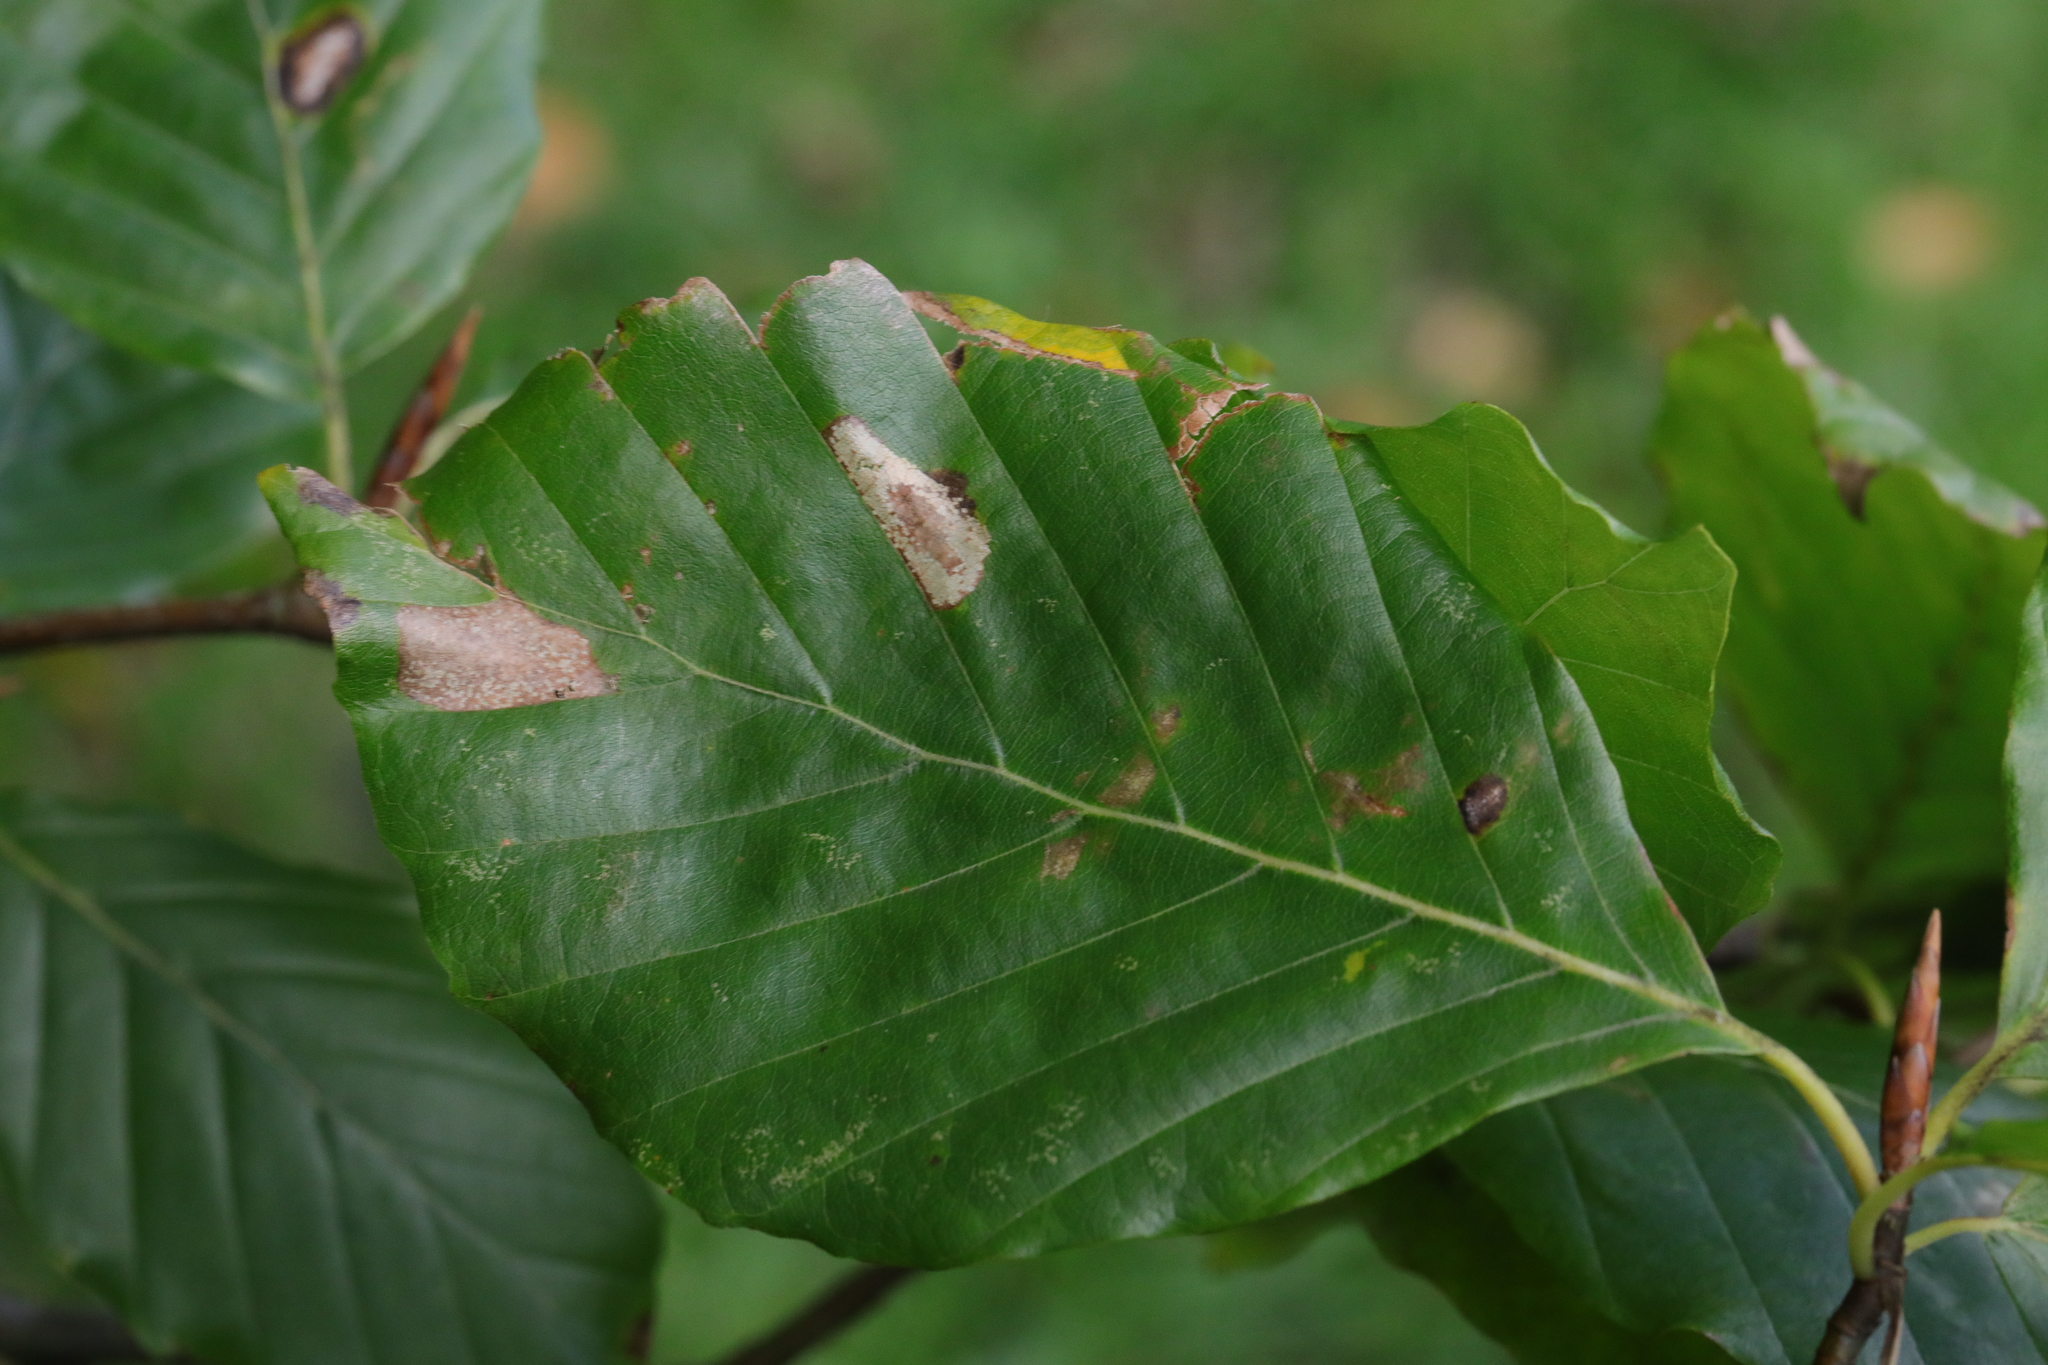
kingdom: Animalia
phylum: Arthropoda
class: Insecta
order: Lepidoptera
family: Gracillariidae
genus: Phyllonorycter
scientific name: Phyllonorycter maestingella
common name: Beech midget
